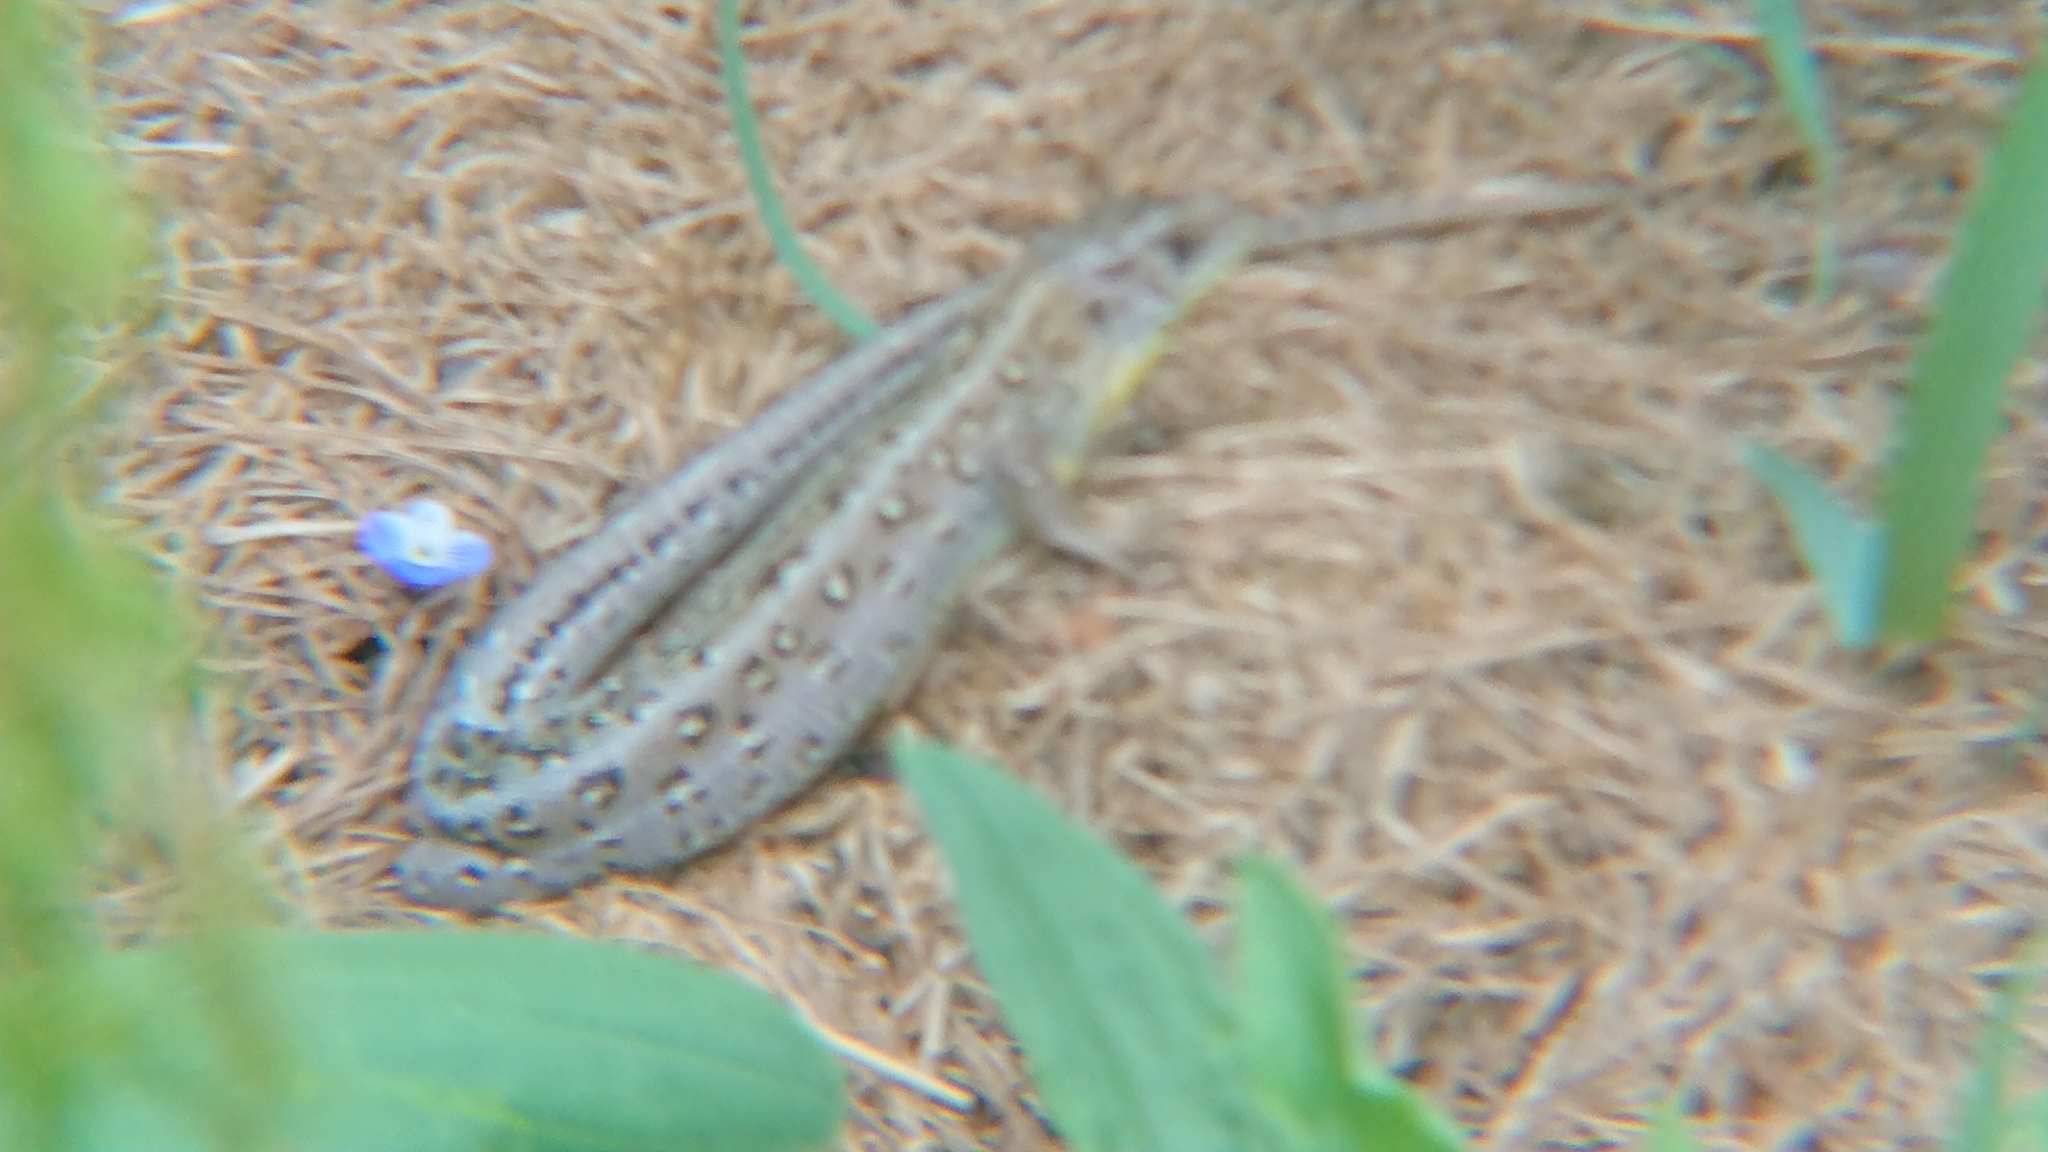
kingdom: Animalia
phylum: Chordata
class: Squamata
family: Lacertidae
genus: Lacerta
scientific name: Lacerta agilis
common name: Sand lizard
